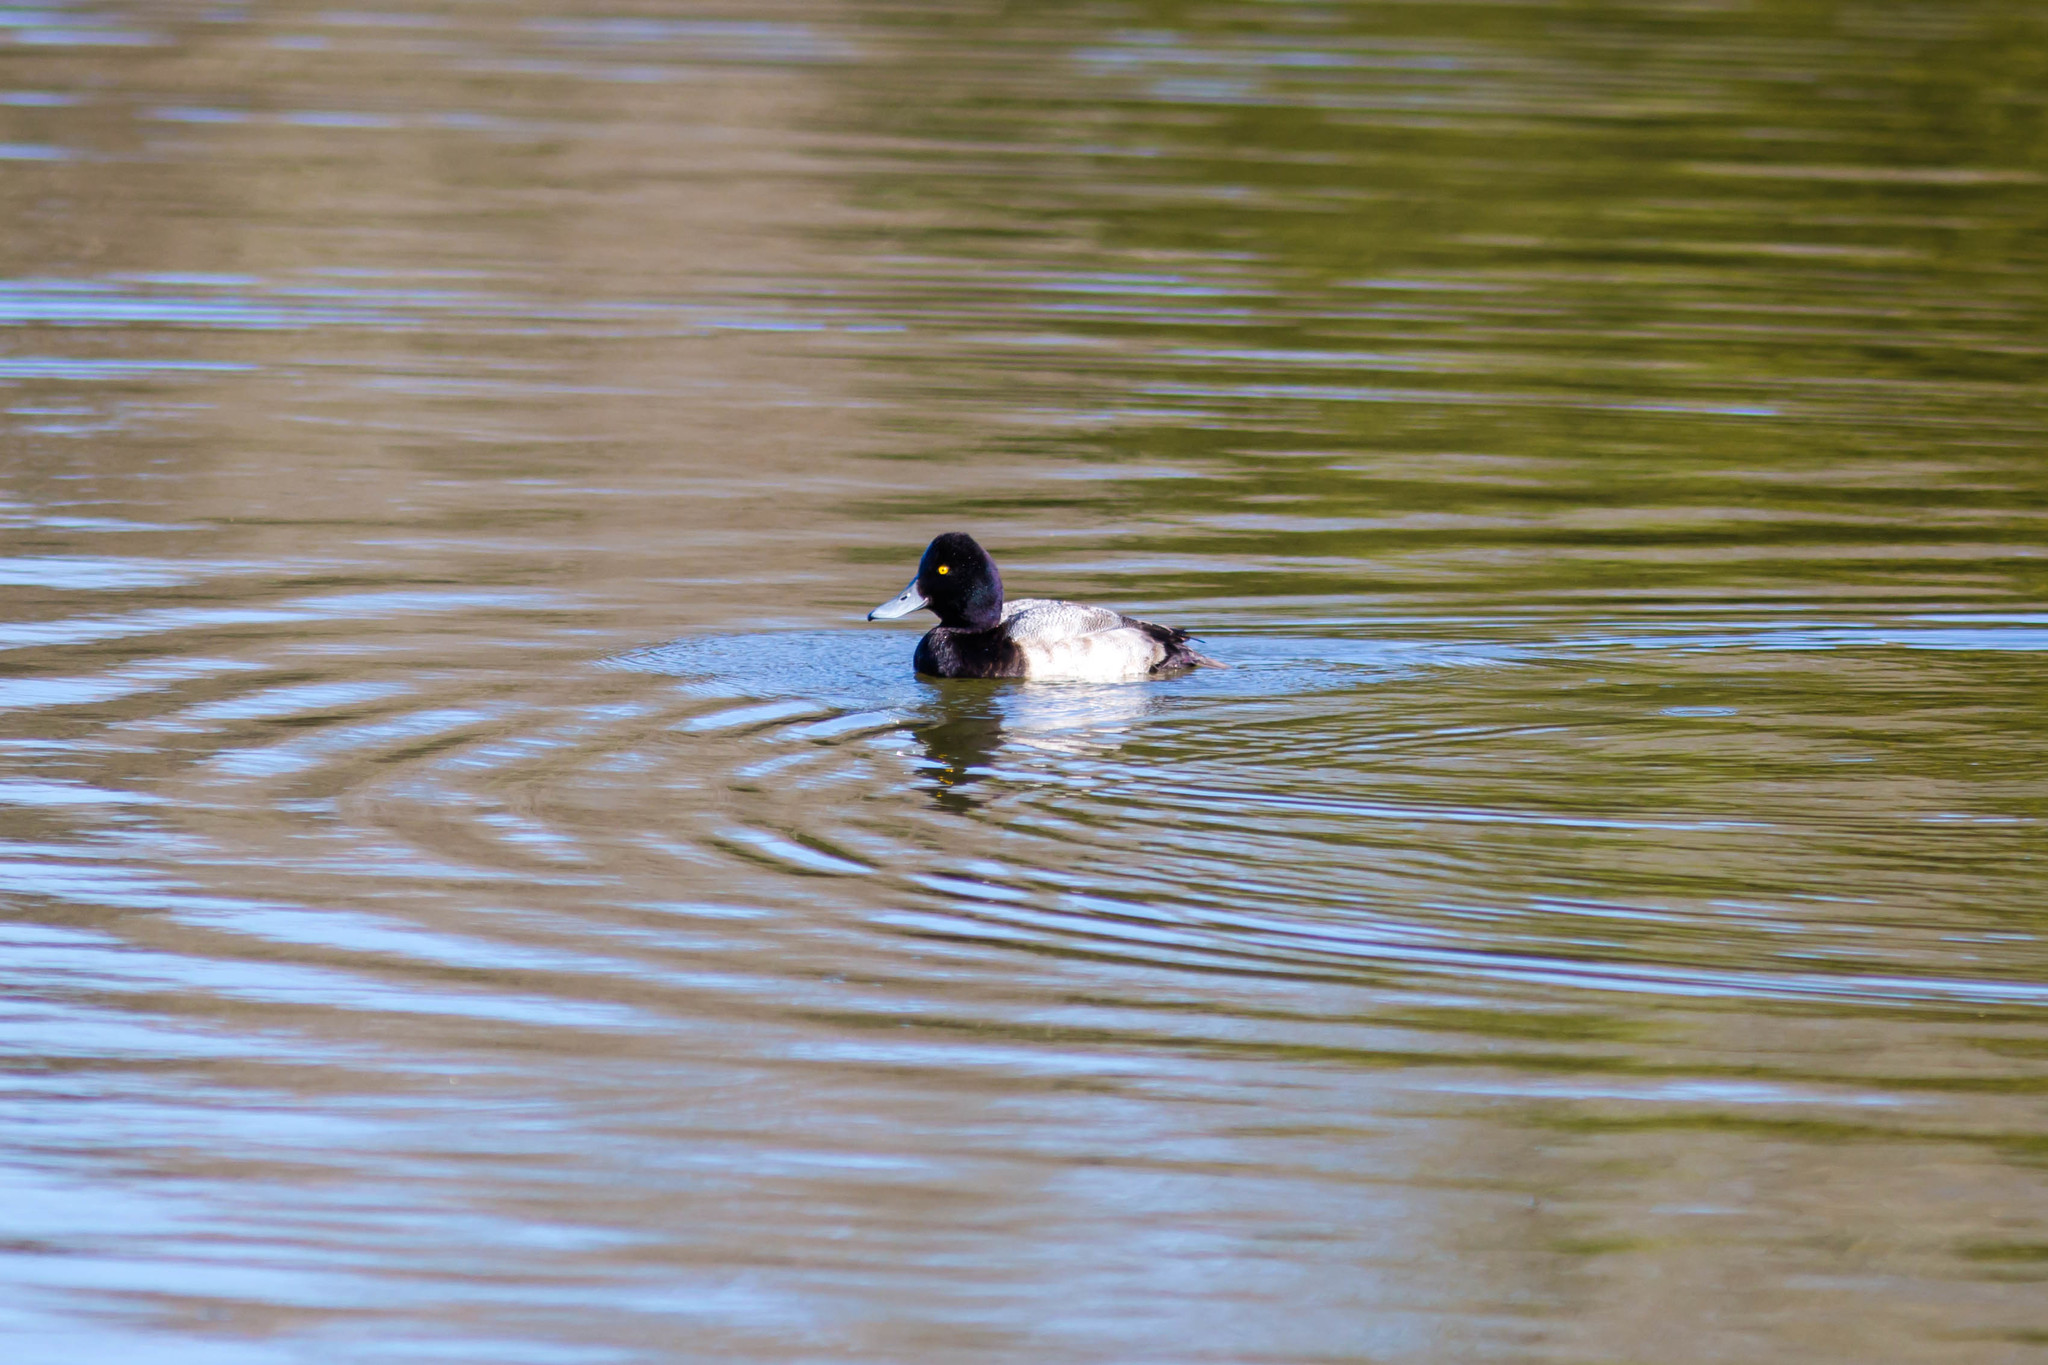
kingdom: Animalia
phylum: Chordata
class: Aves
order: Anseriformes
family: Anatidae
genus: Aythya
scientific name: Aythya affinis
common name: Lesser scaup
